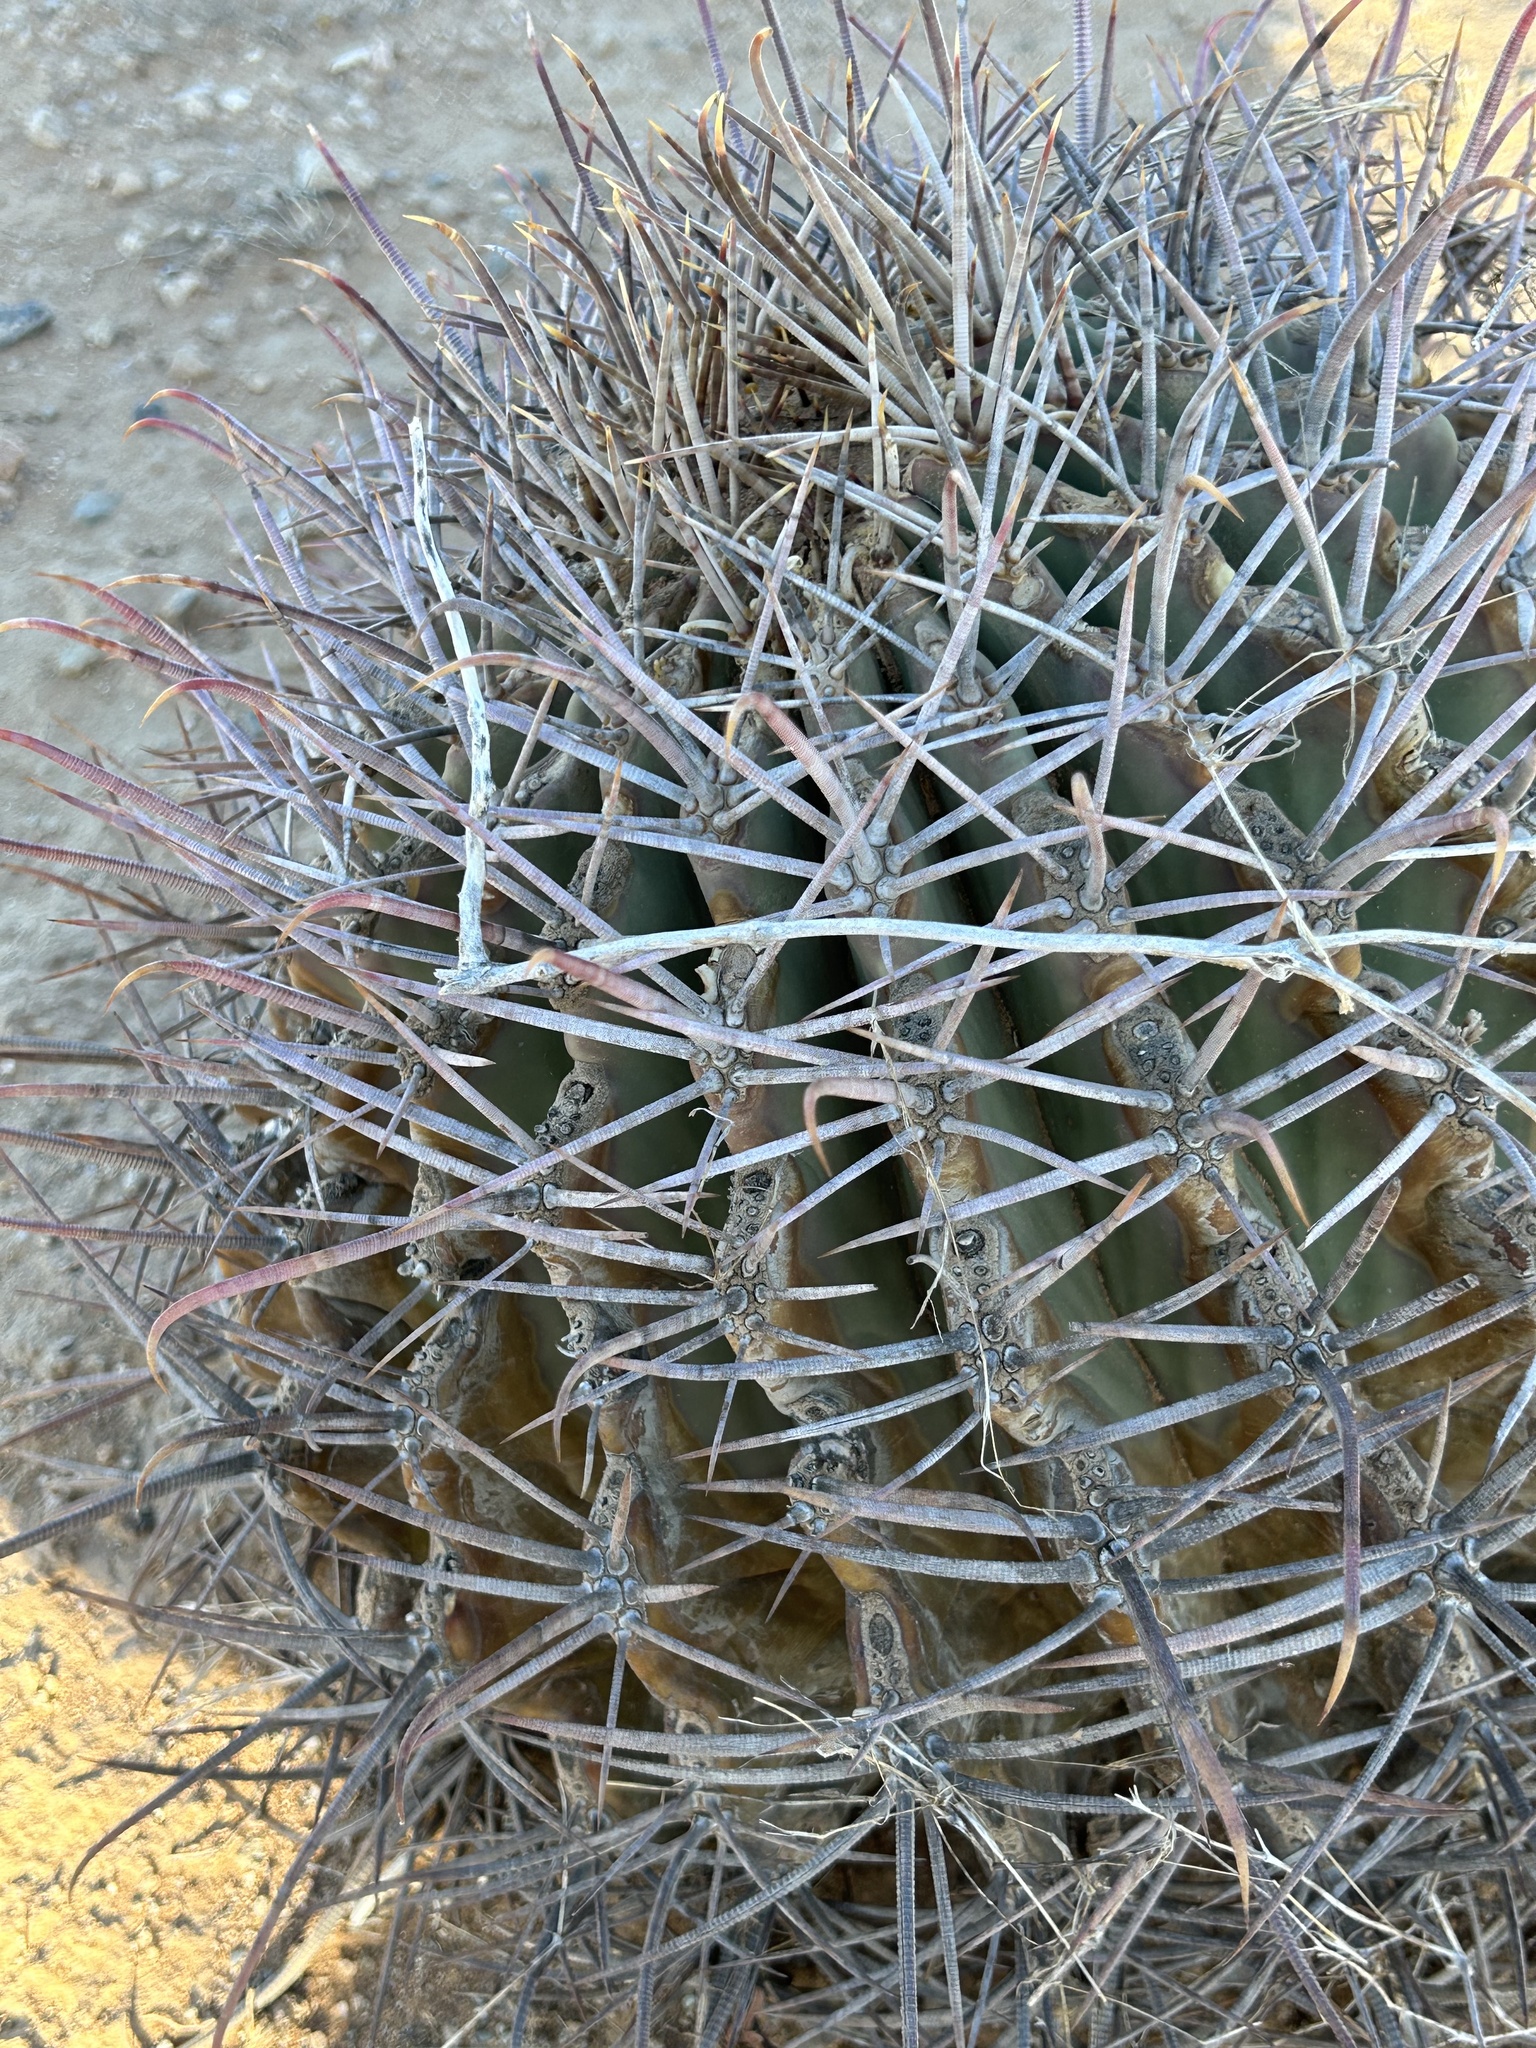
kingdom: Plantae
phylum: Tracheophyta
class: Magnoliopsida
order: Caryophyllales
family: Cactaceae
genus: Ferocactus
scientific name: Ferocactus emoryi
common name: Emory's barrel cactus
